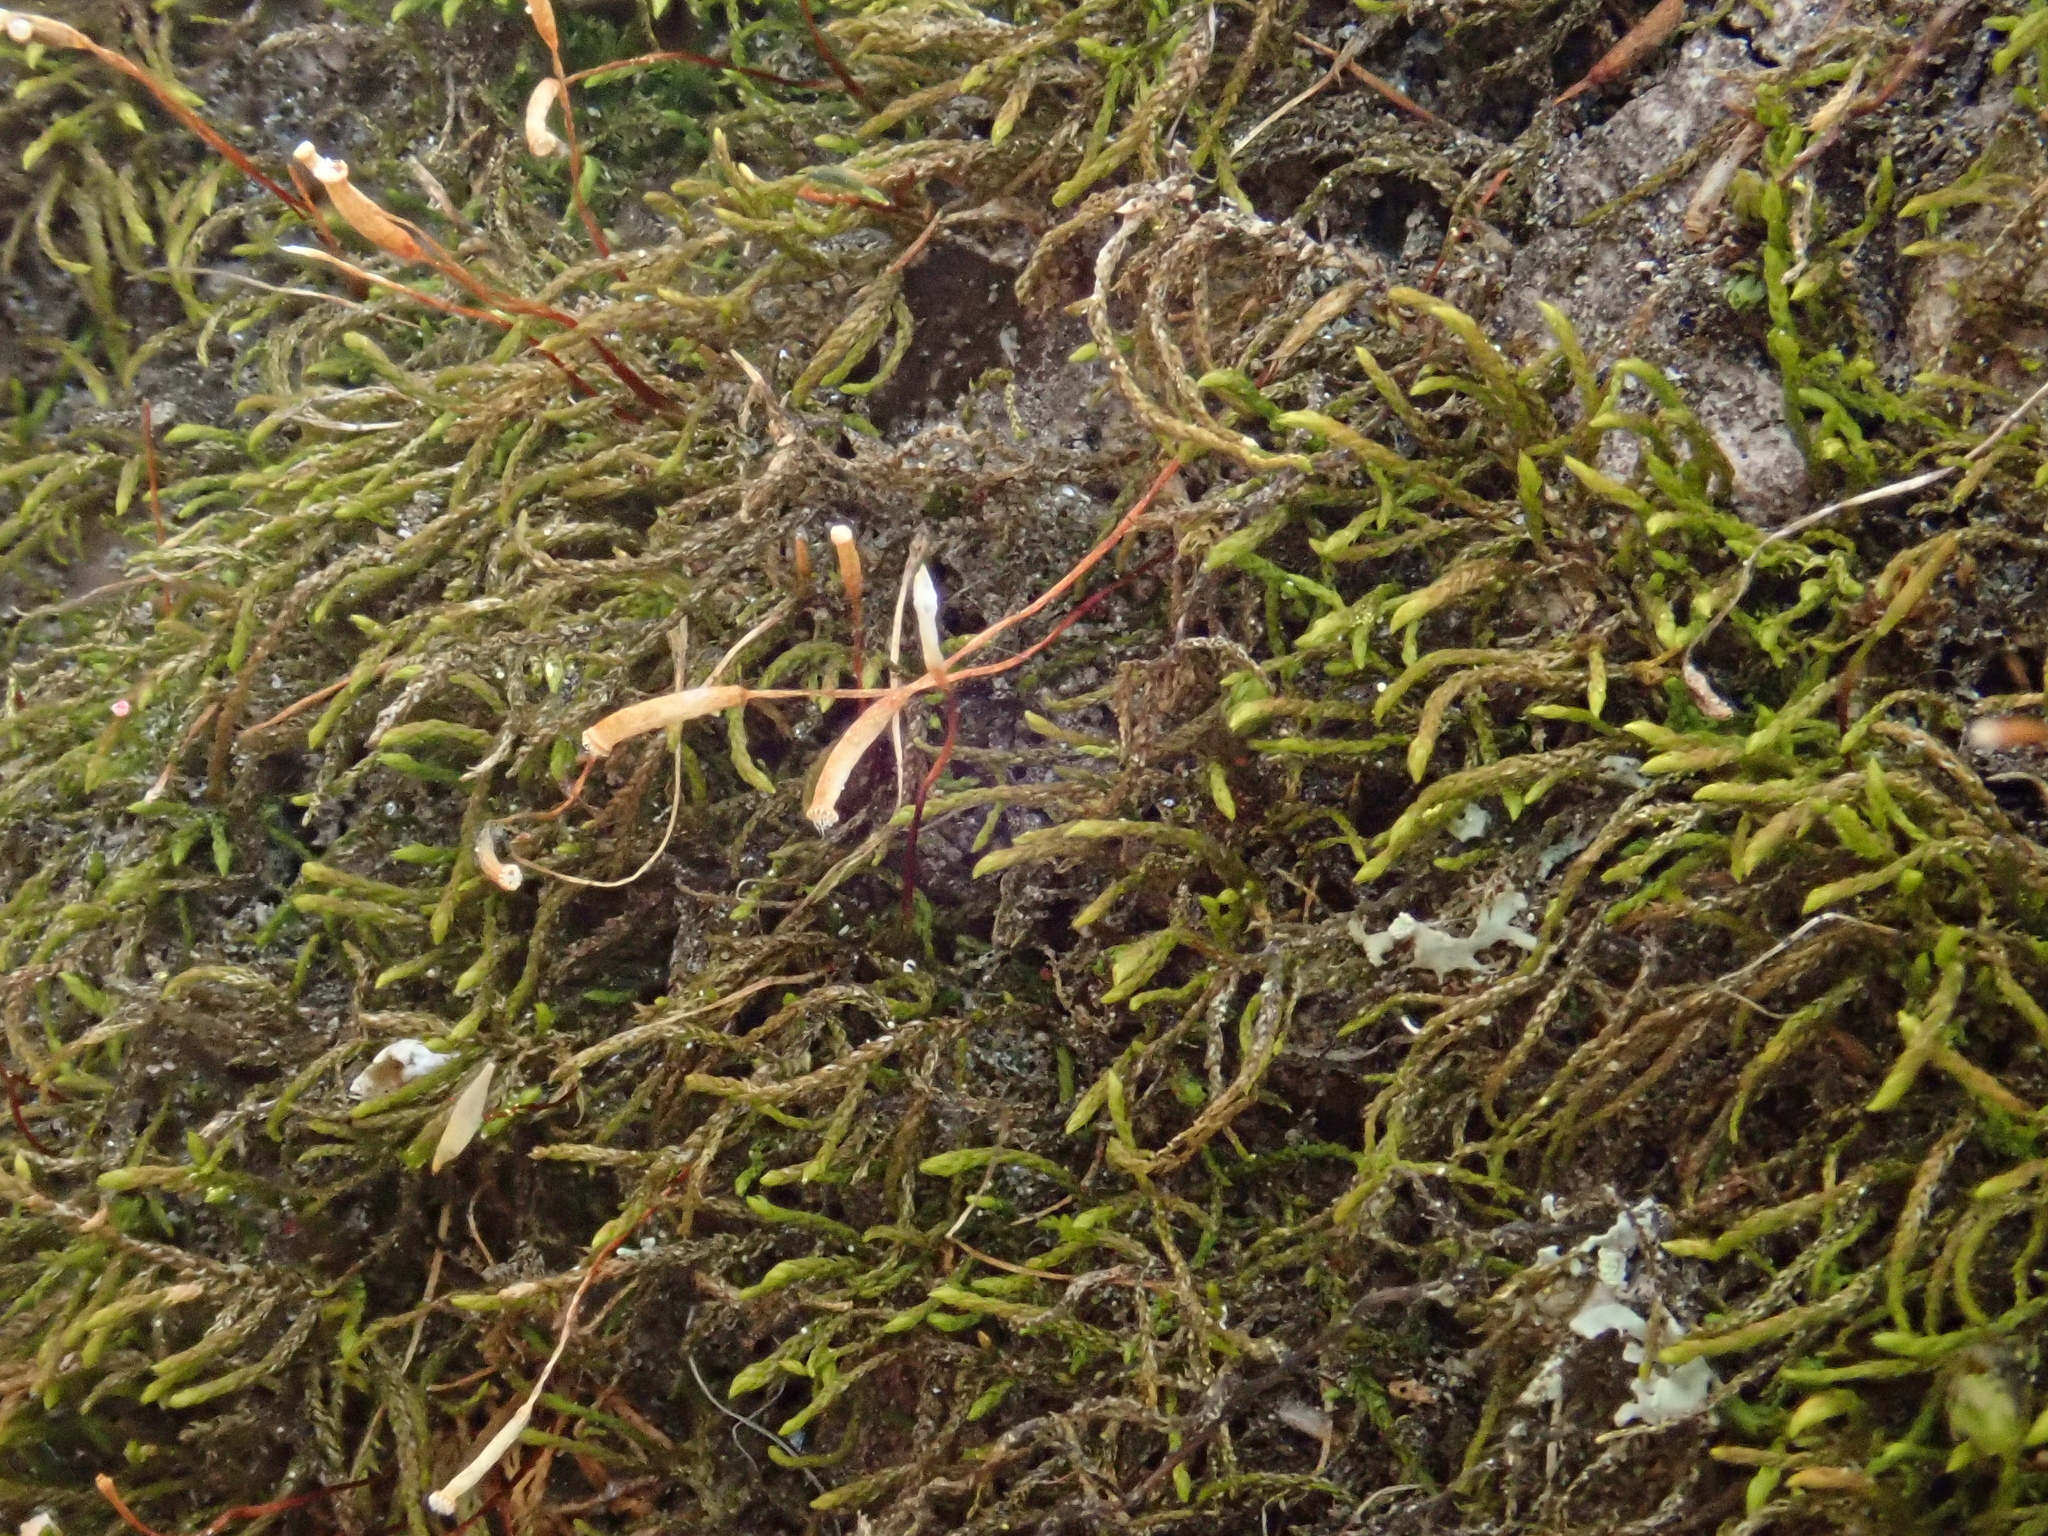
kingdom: Plantae
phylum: Bryophyta
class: Bryopsida
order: Hypnales
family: Leskeaceae
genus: Leskea
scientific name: Leskea polycarpa
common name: Many-fruited leske's moss
